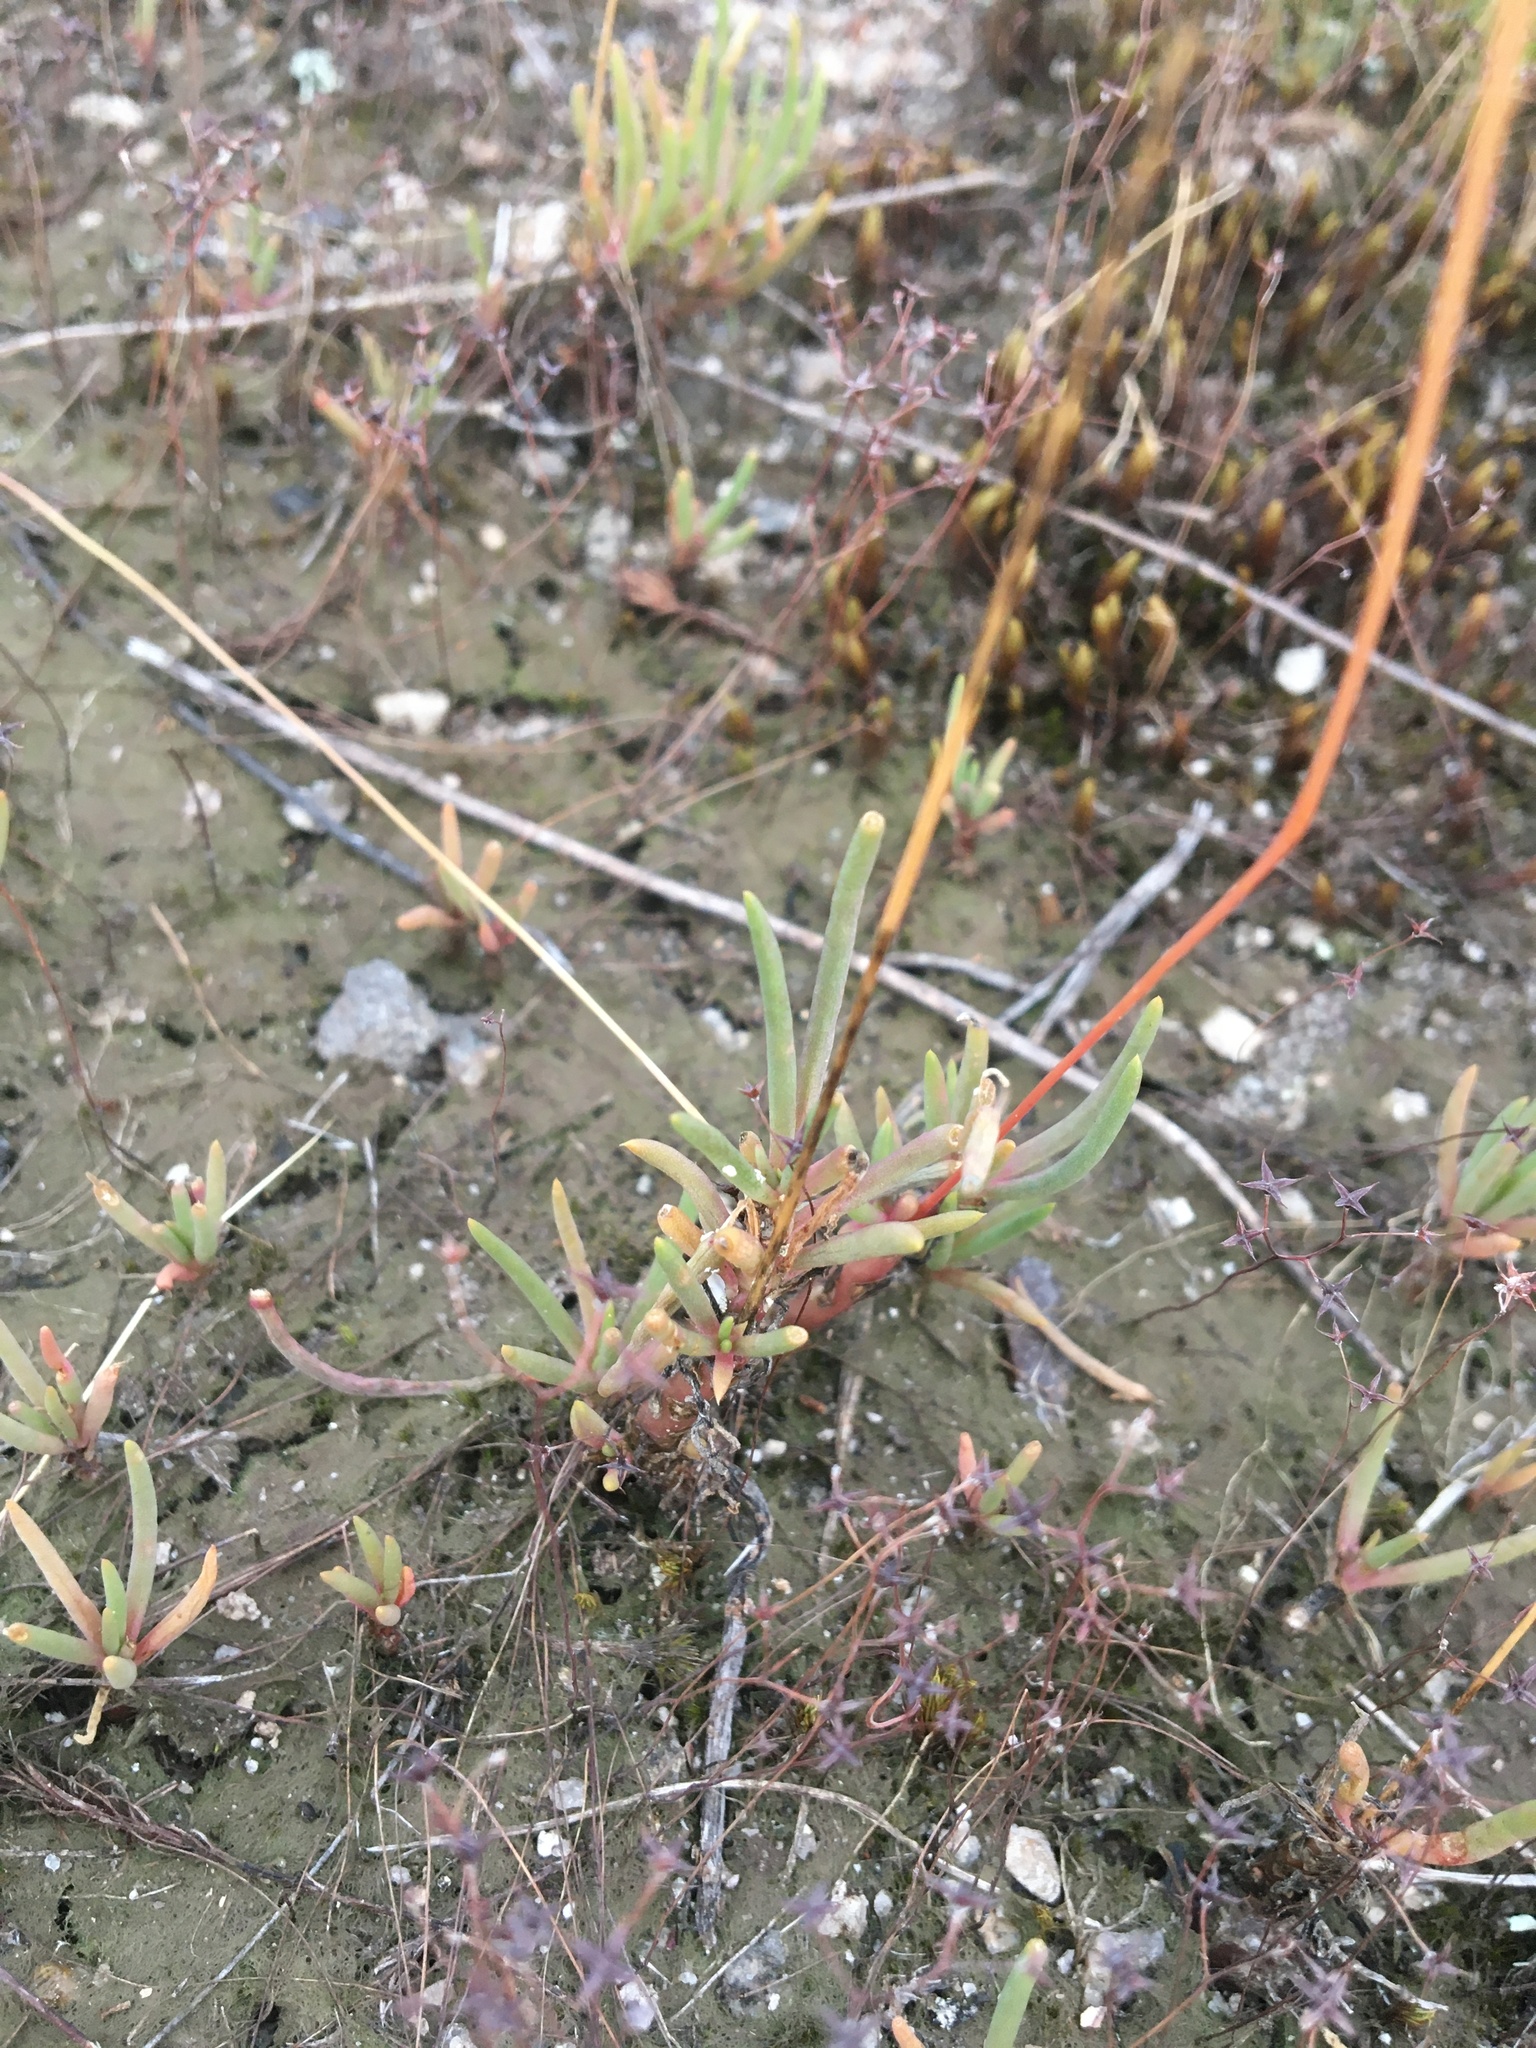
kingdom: Plantae
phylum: Tracheophyta
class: Magnoliopsida
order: Caryophyllales
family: Montiaceae
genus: Phemeranthus
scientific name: Phemeranthus teretifolius
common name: Quill fameflower
